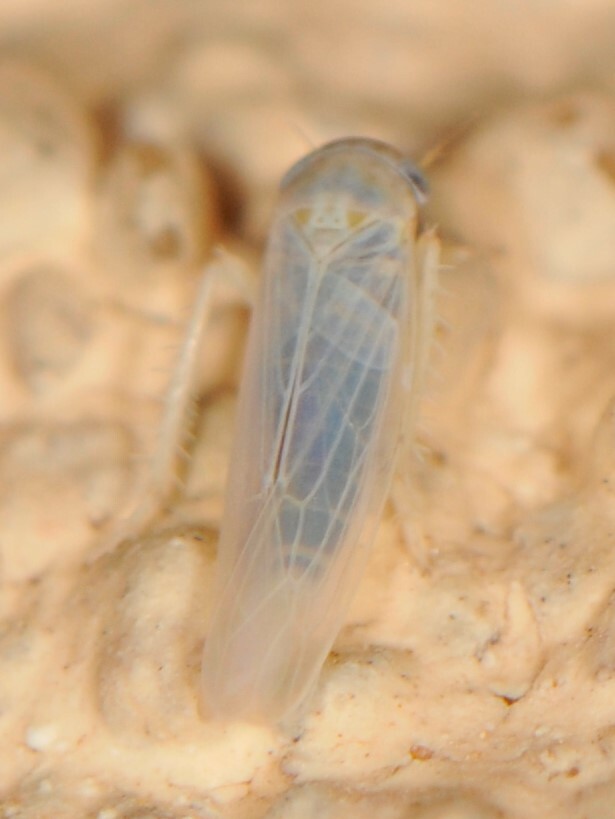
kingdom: Animalia
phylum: Arthropoda
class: Insecta
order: Hemiptera
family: Cicadellidae
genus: Balclutha
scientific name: Balclutha
